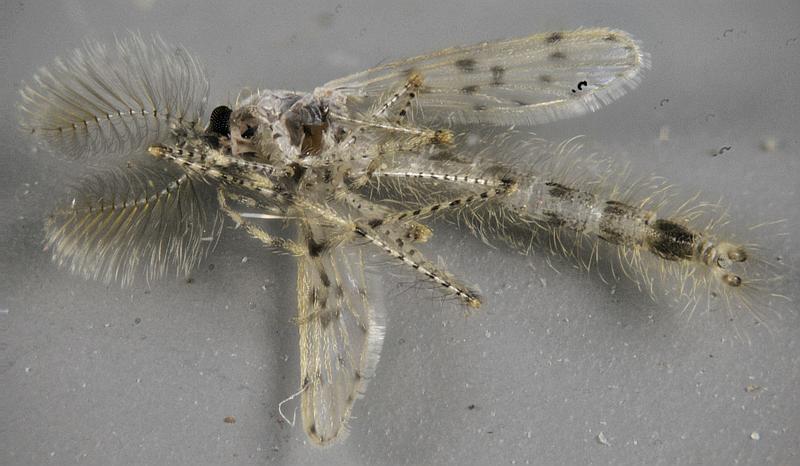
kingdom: Animalia
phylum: Arthropoda
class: Insecta
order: Diptera
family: Chaoboridae
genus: Chaoborus
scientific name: Chaoborus punctipennis
